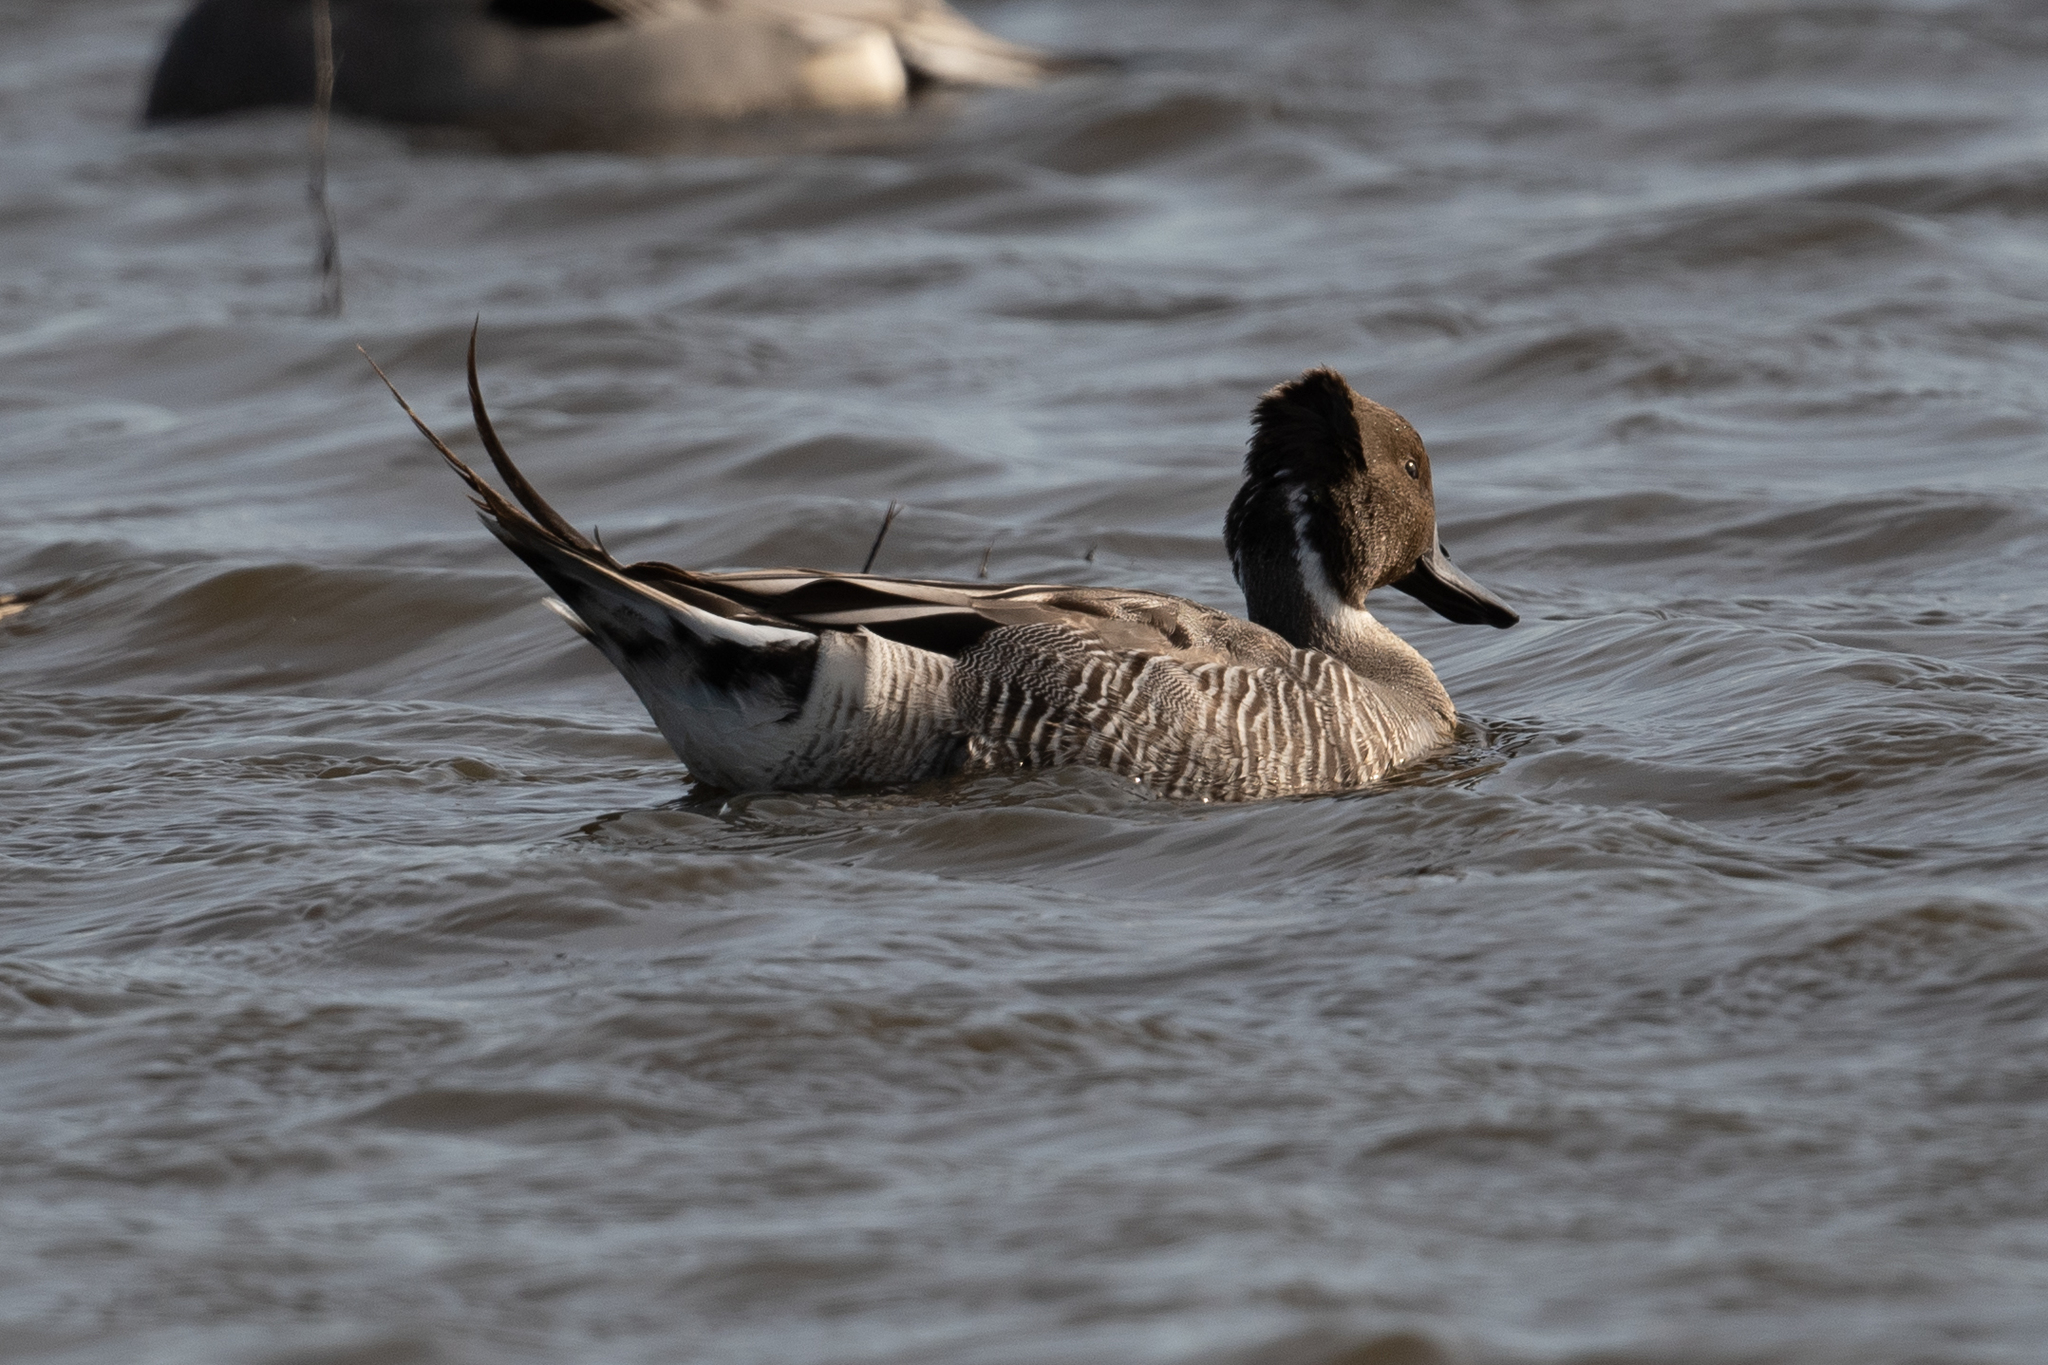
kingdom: Animalia
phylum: Chordata
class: Aves
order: Anseriformes
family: Anatidae
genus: Anas
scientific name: Anas acuta
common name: Northern pintail
